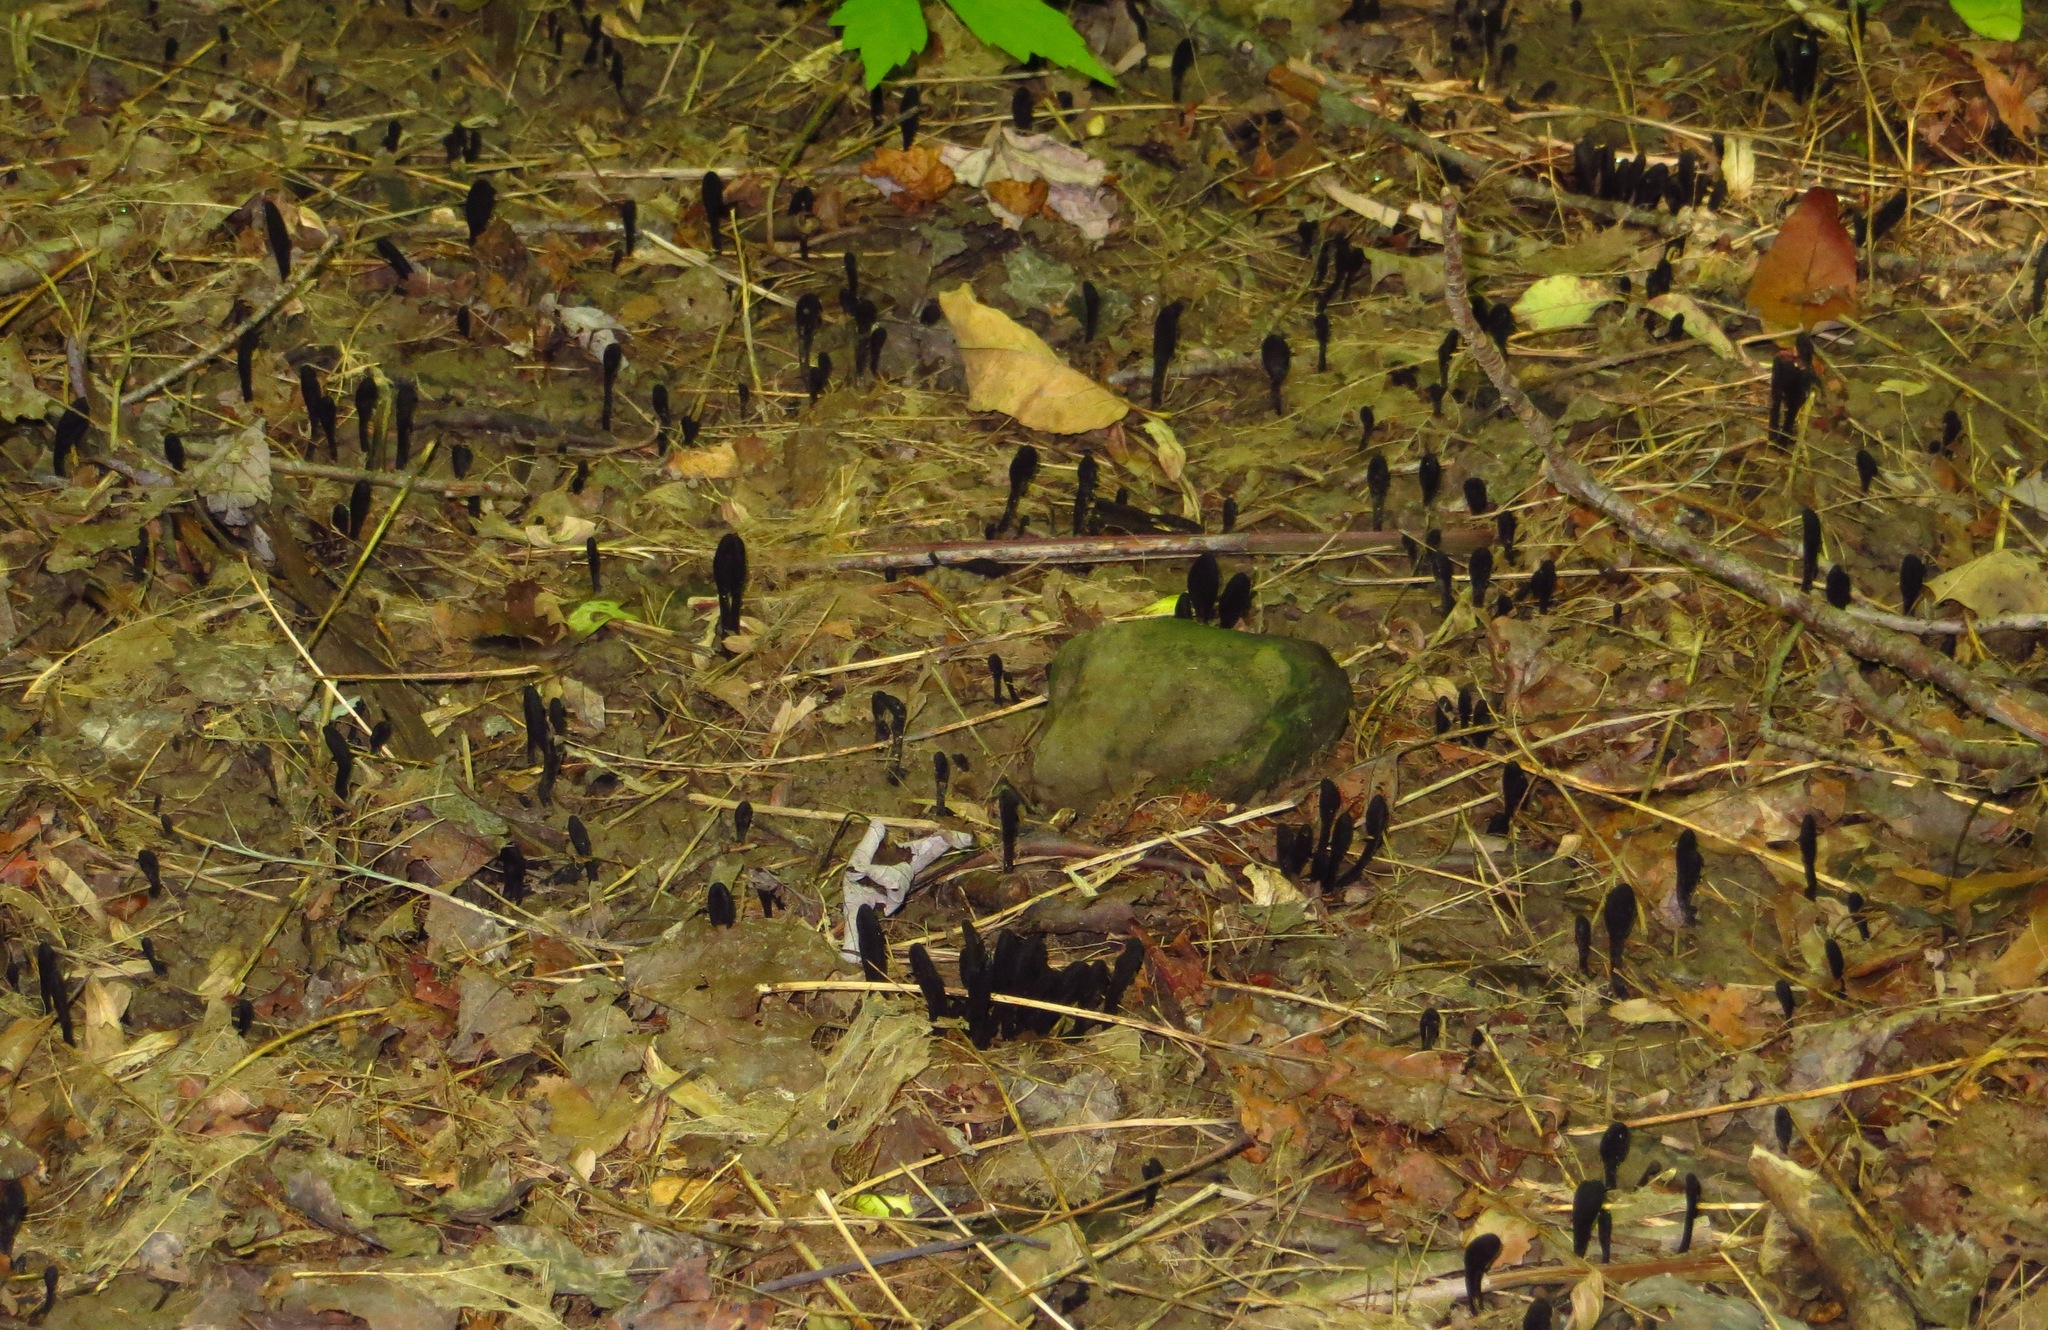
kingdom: Fungi
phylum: Ascomycota
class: Geoglossomycetes
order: Geoglossales
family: Geoglossaceae
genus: Geoglossum
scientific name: Geoglossum nigritum
